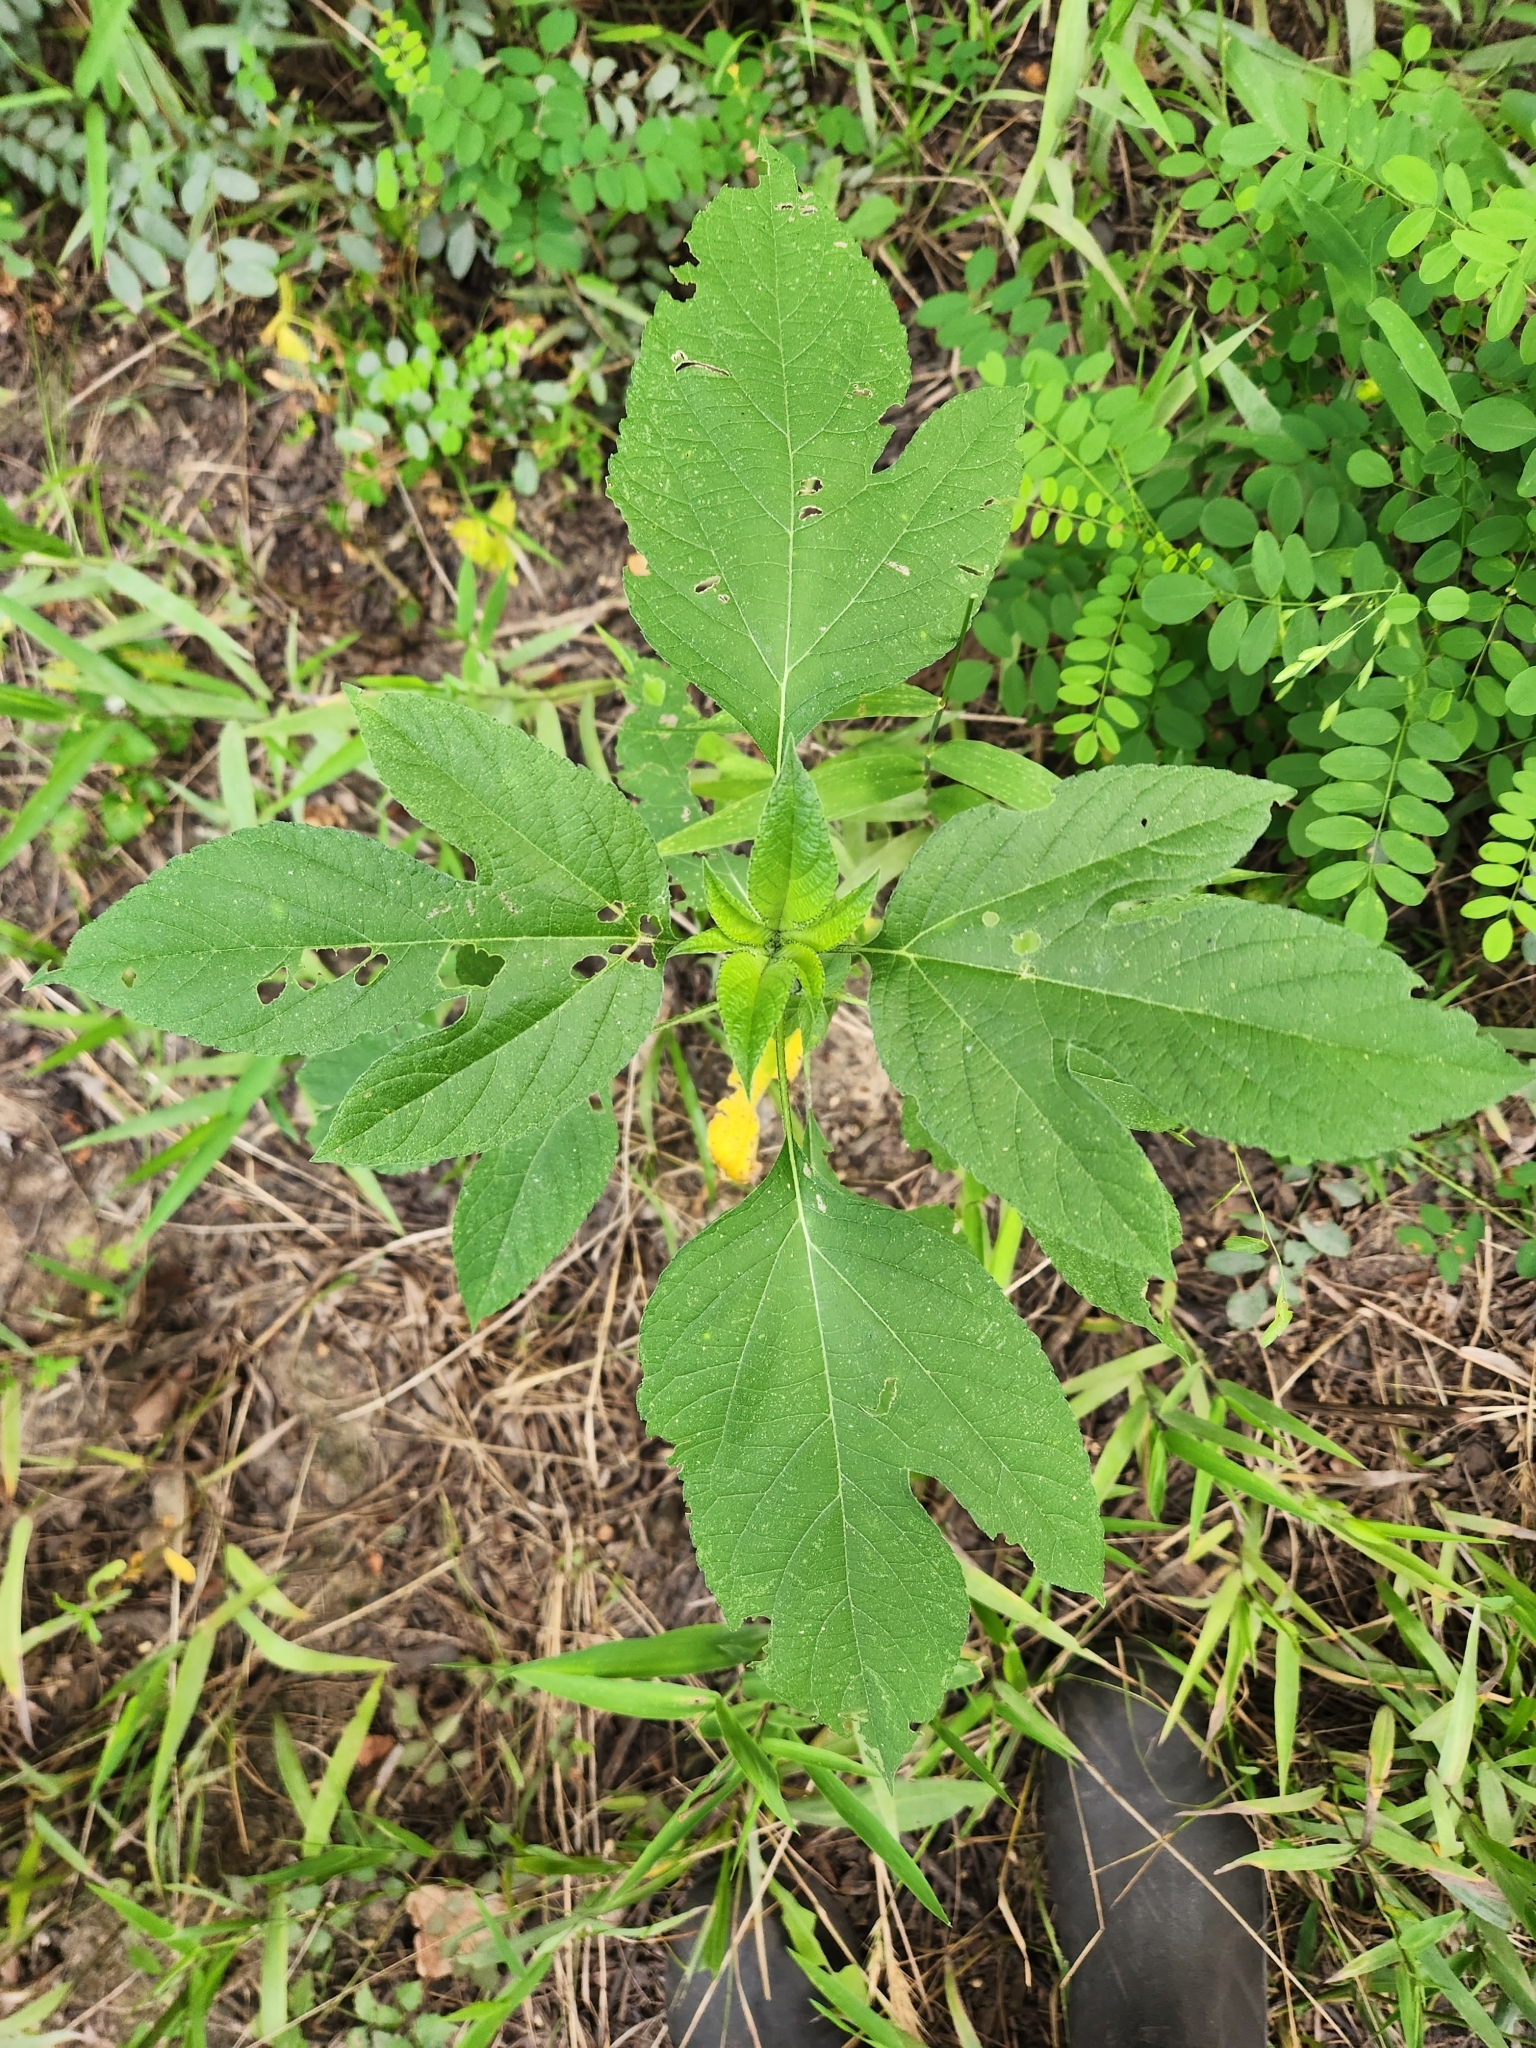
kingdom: Plantae
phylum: Tracheophyta
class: Magnoliopsida
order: Asterales
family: Asteraceae
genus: Ambrosia
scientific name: Ambrosia trifida
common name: Giant ragweed
